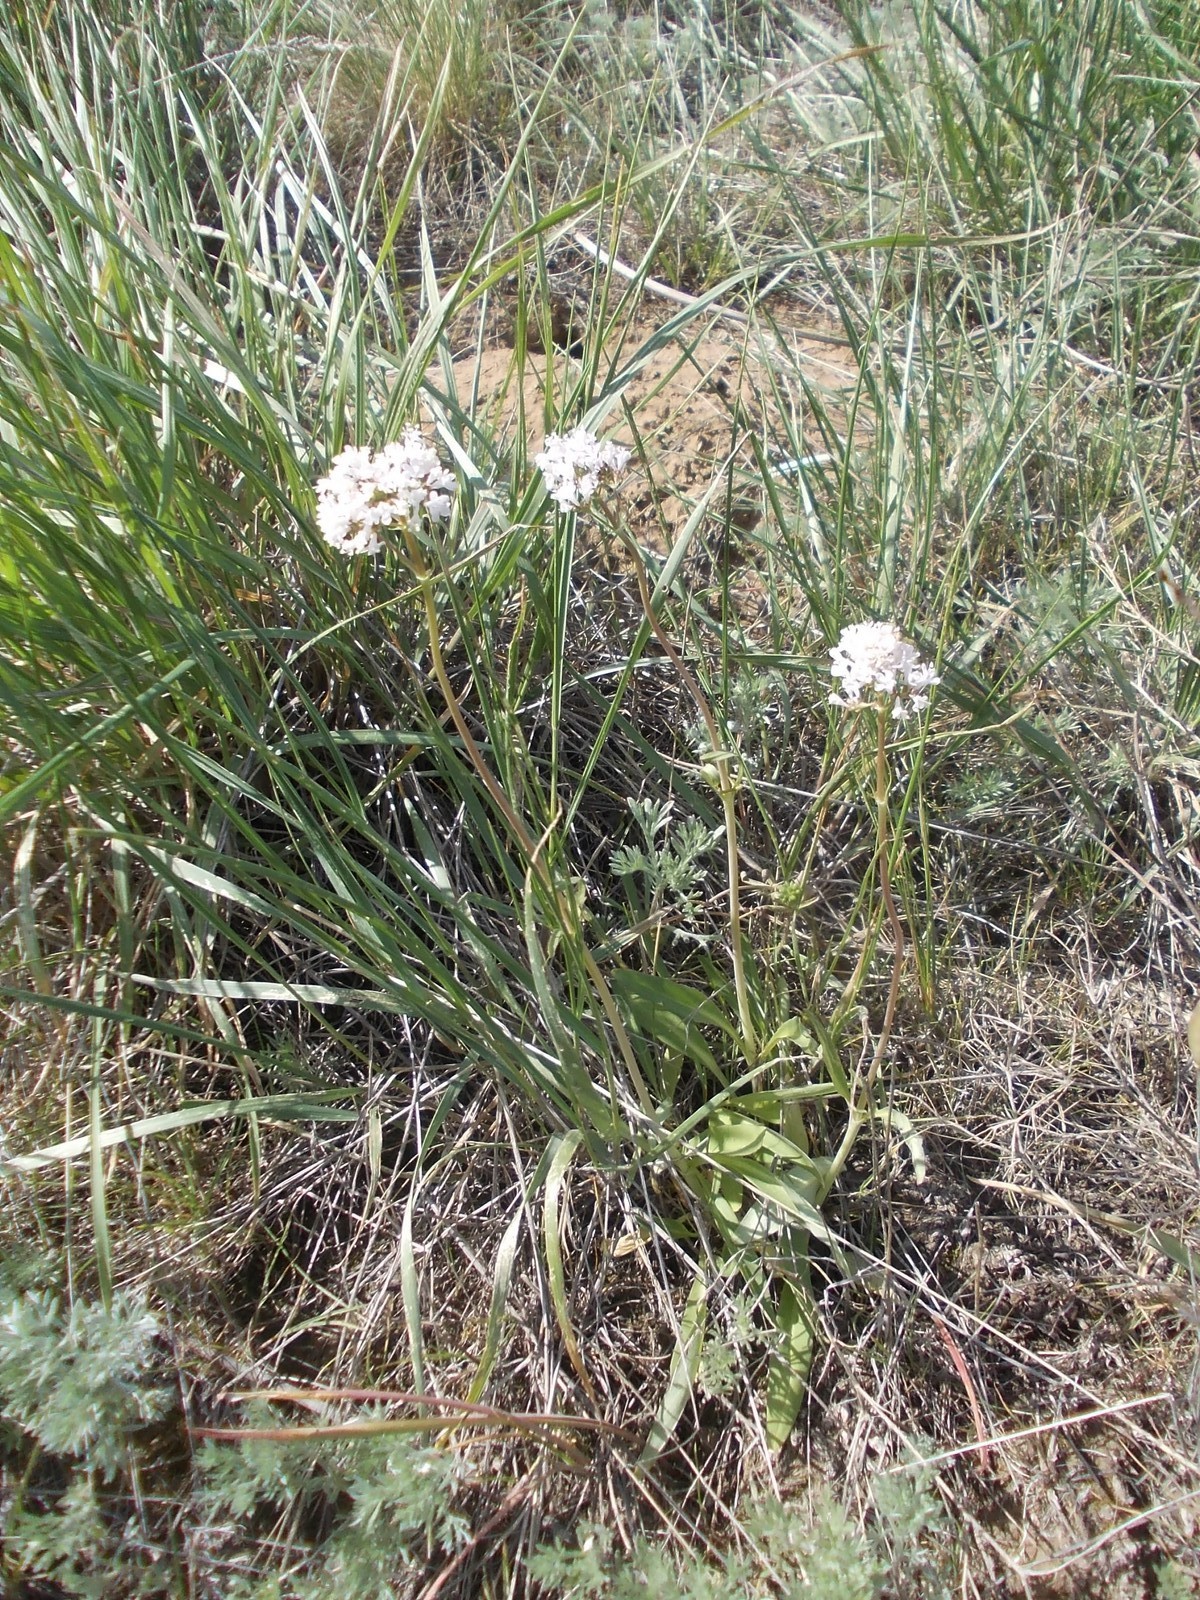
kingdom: Plantae
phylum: Tracheophyta
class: Magnoliopsida
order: Dipsacales
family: Caprifoliaceae
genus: Valeriana
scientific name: Valeriana tuberosa
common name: Tuberous valerian
